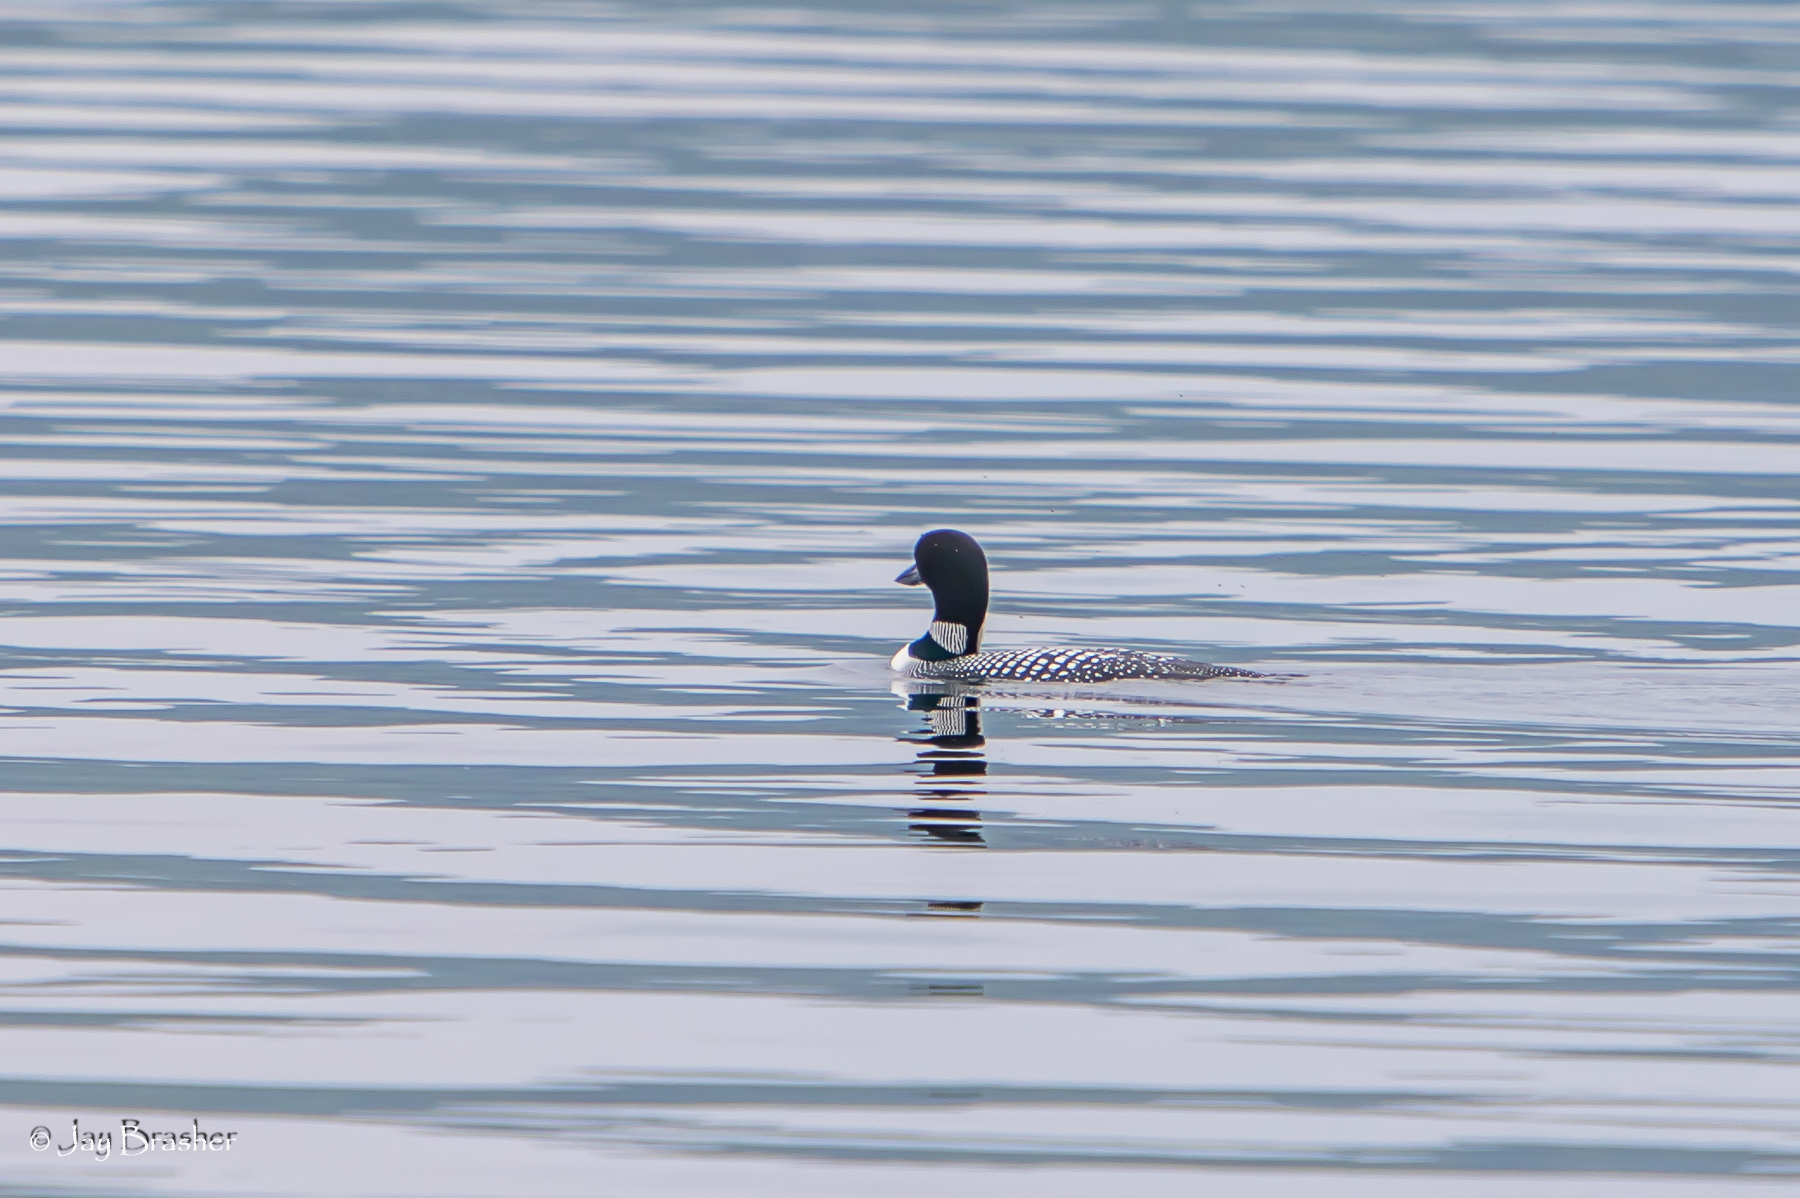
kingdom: Animalia
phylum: Chordata
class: Aves
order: Gaviiformes
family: Gaviidae
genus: Gavia
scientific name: Gavia immer
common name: Common loon
